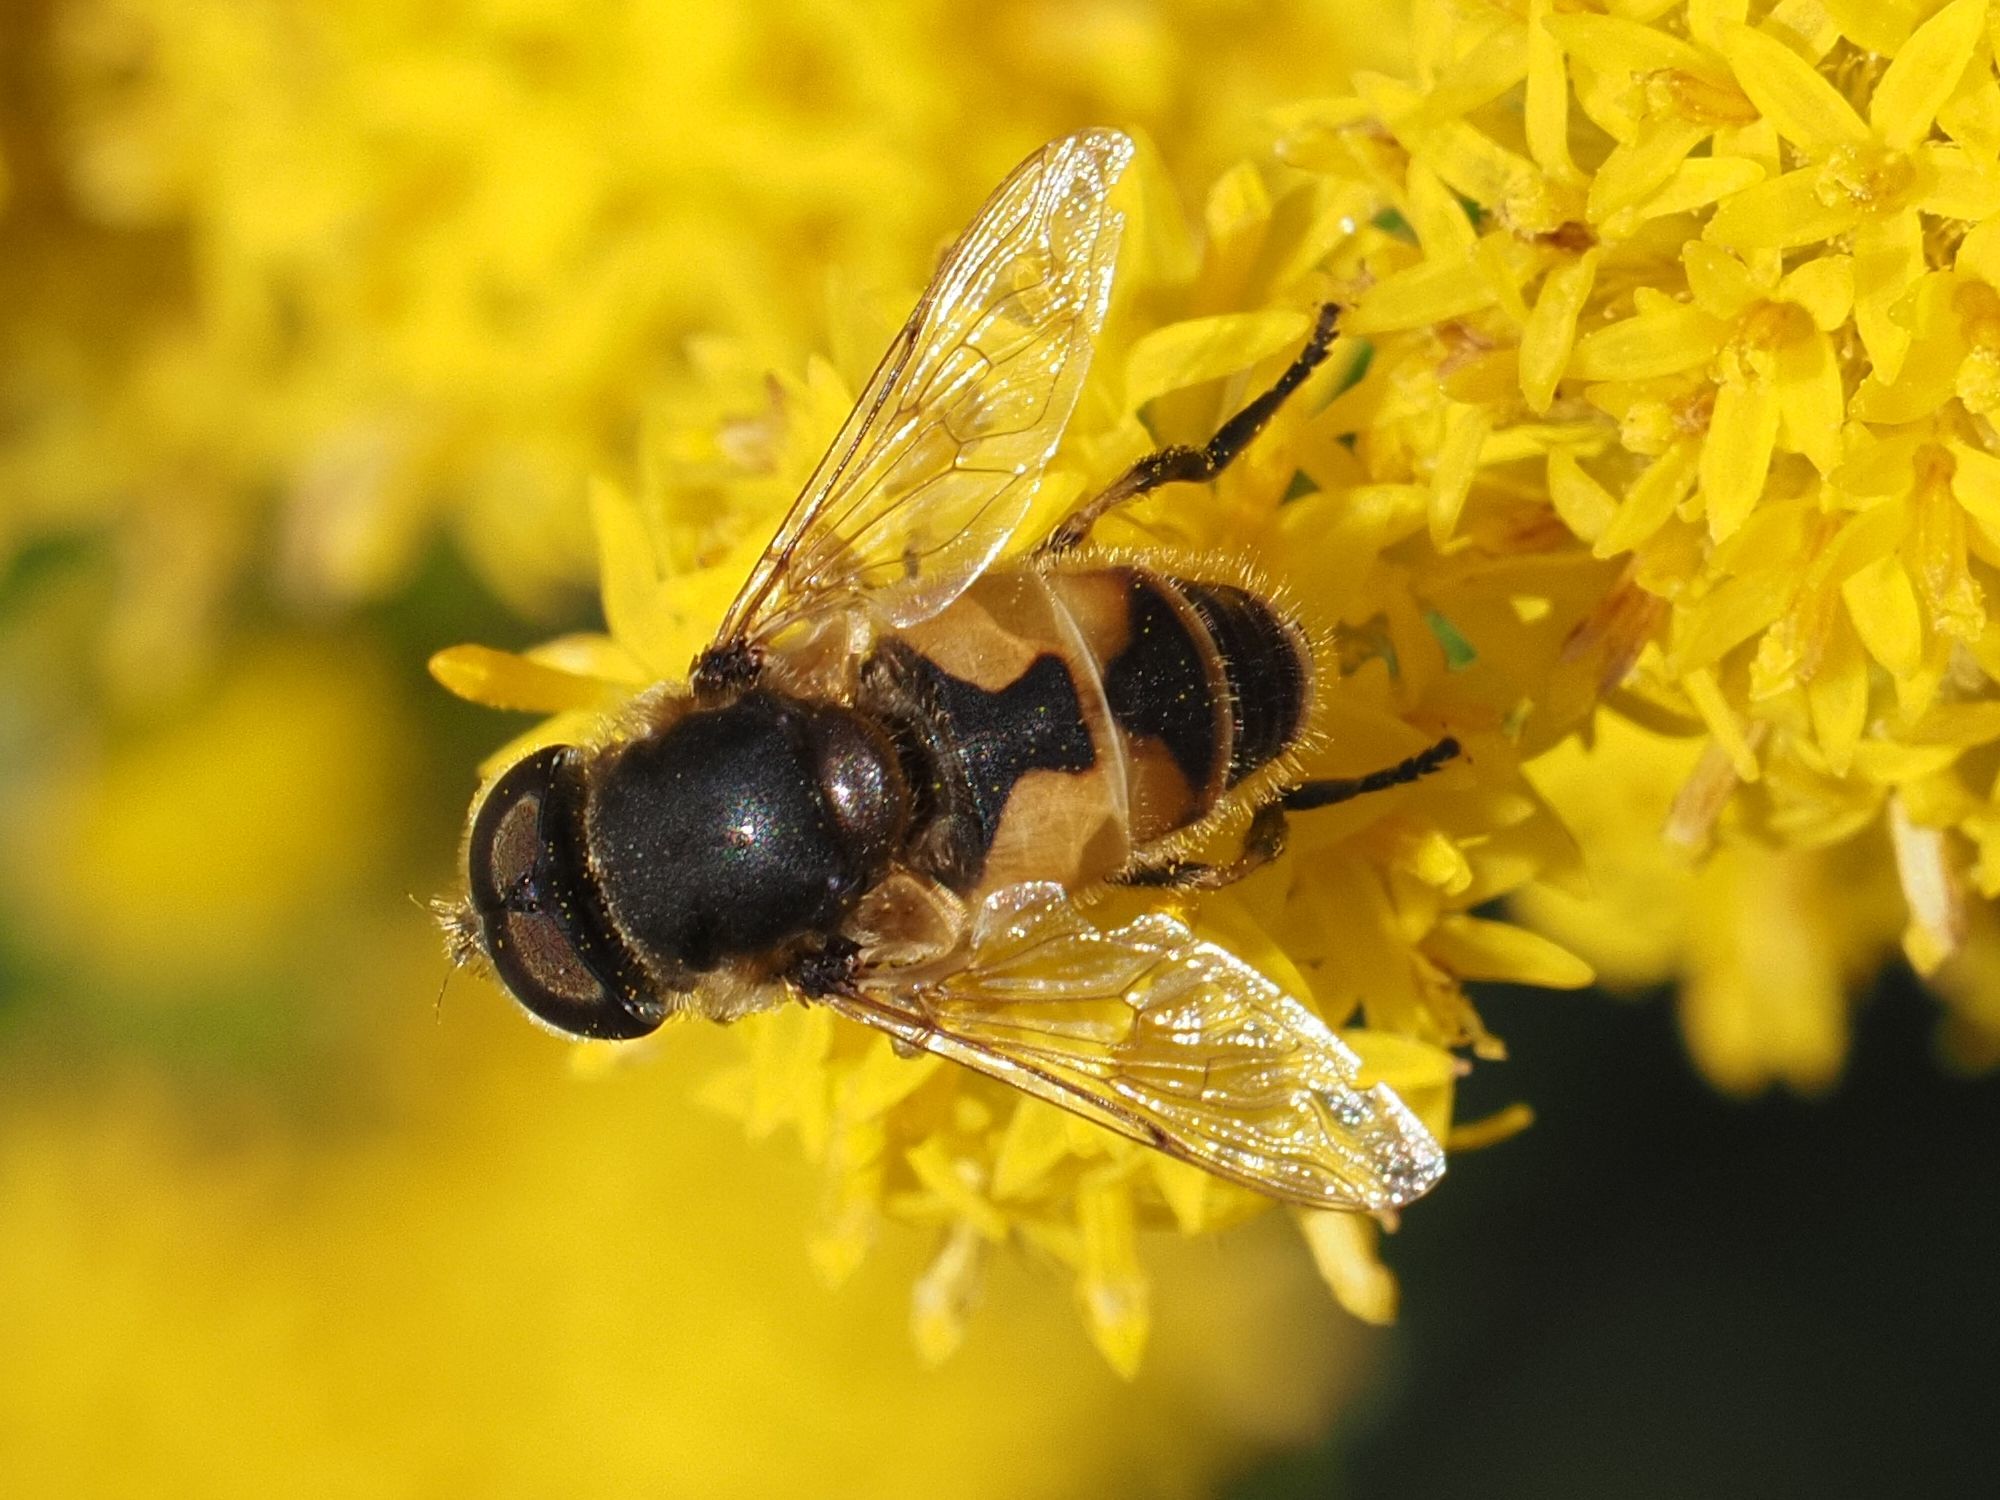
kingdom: Animalia
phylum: Arthropoda
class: Insecta
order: Diptera
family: Syrphidae
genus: Eristalis
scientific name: Eristalis arbustorum
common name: Hover fly
